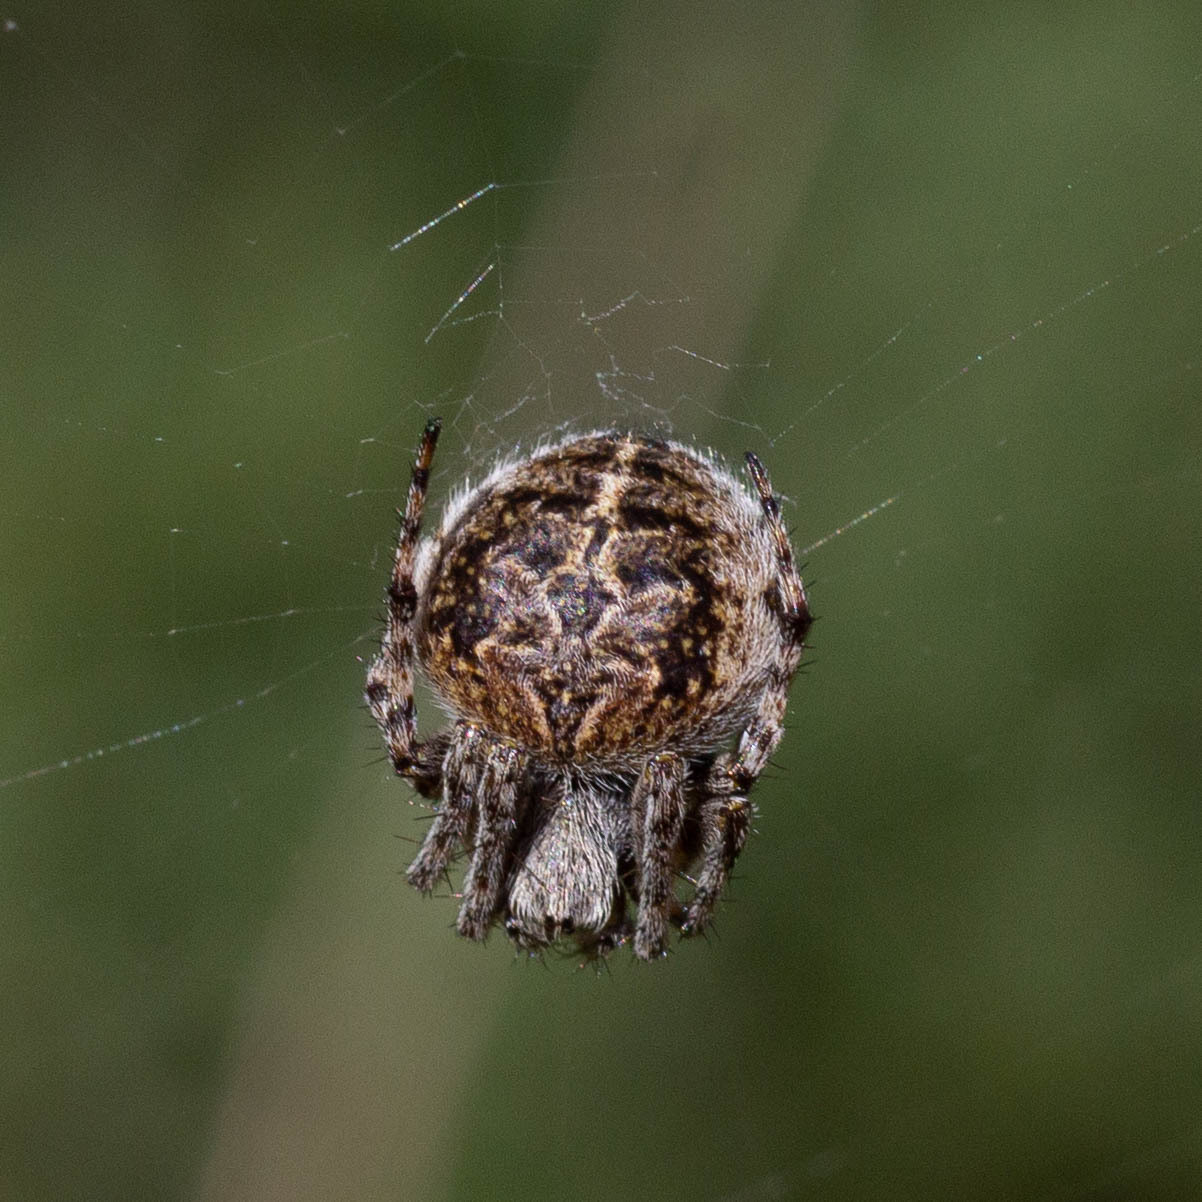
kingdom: Animalia
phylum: Arthropoda
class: Arachnida
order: Araneae
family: Araneidae
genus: Agalenatea
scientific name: Agalenatea redii
